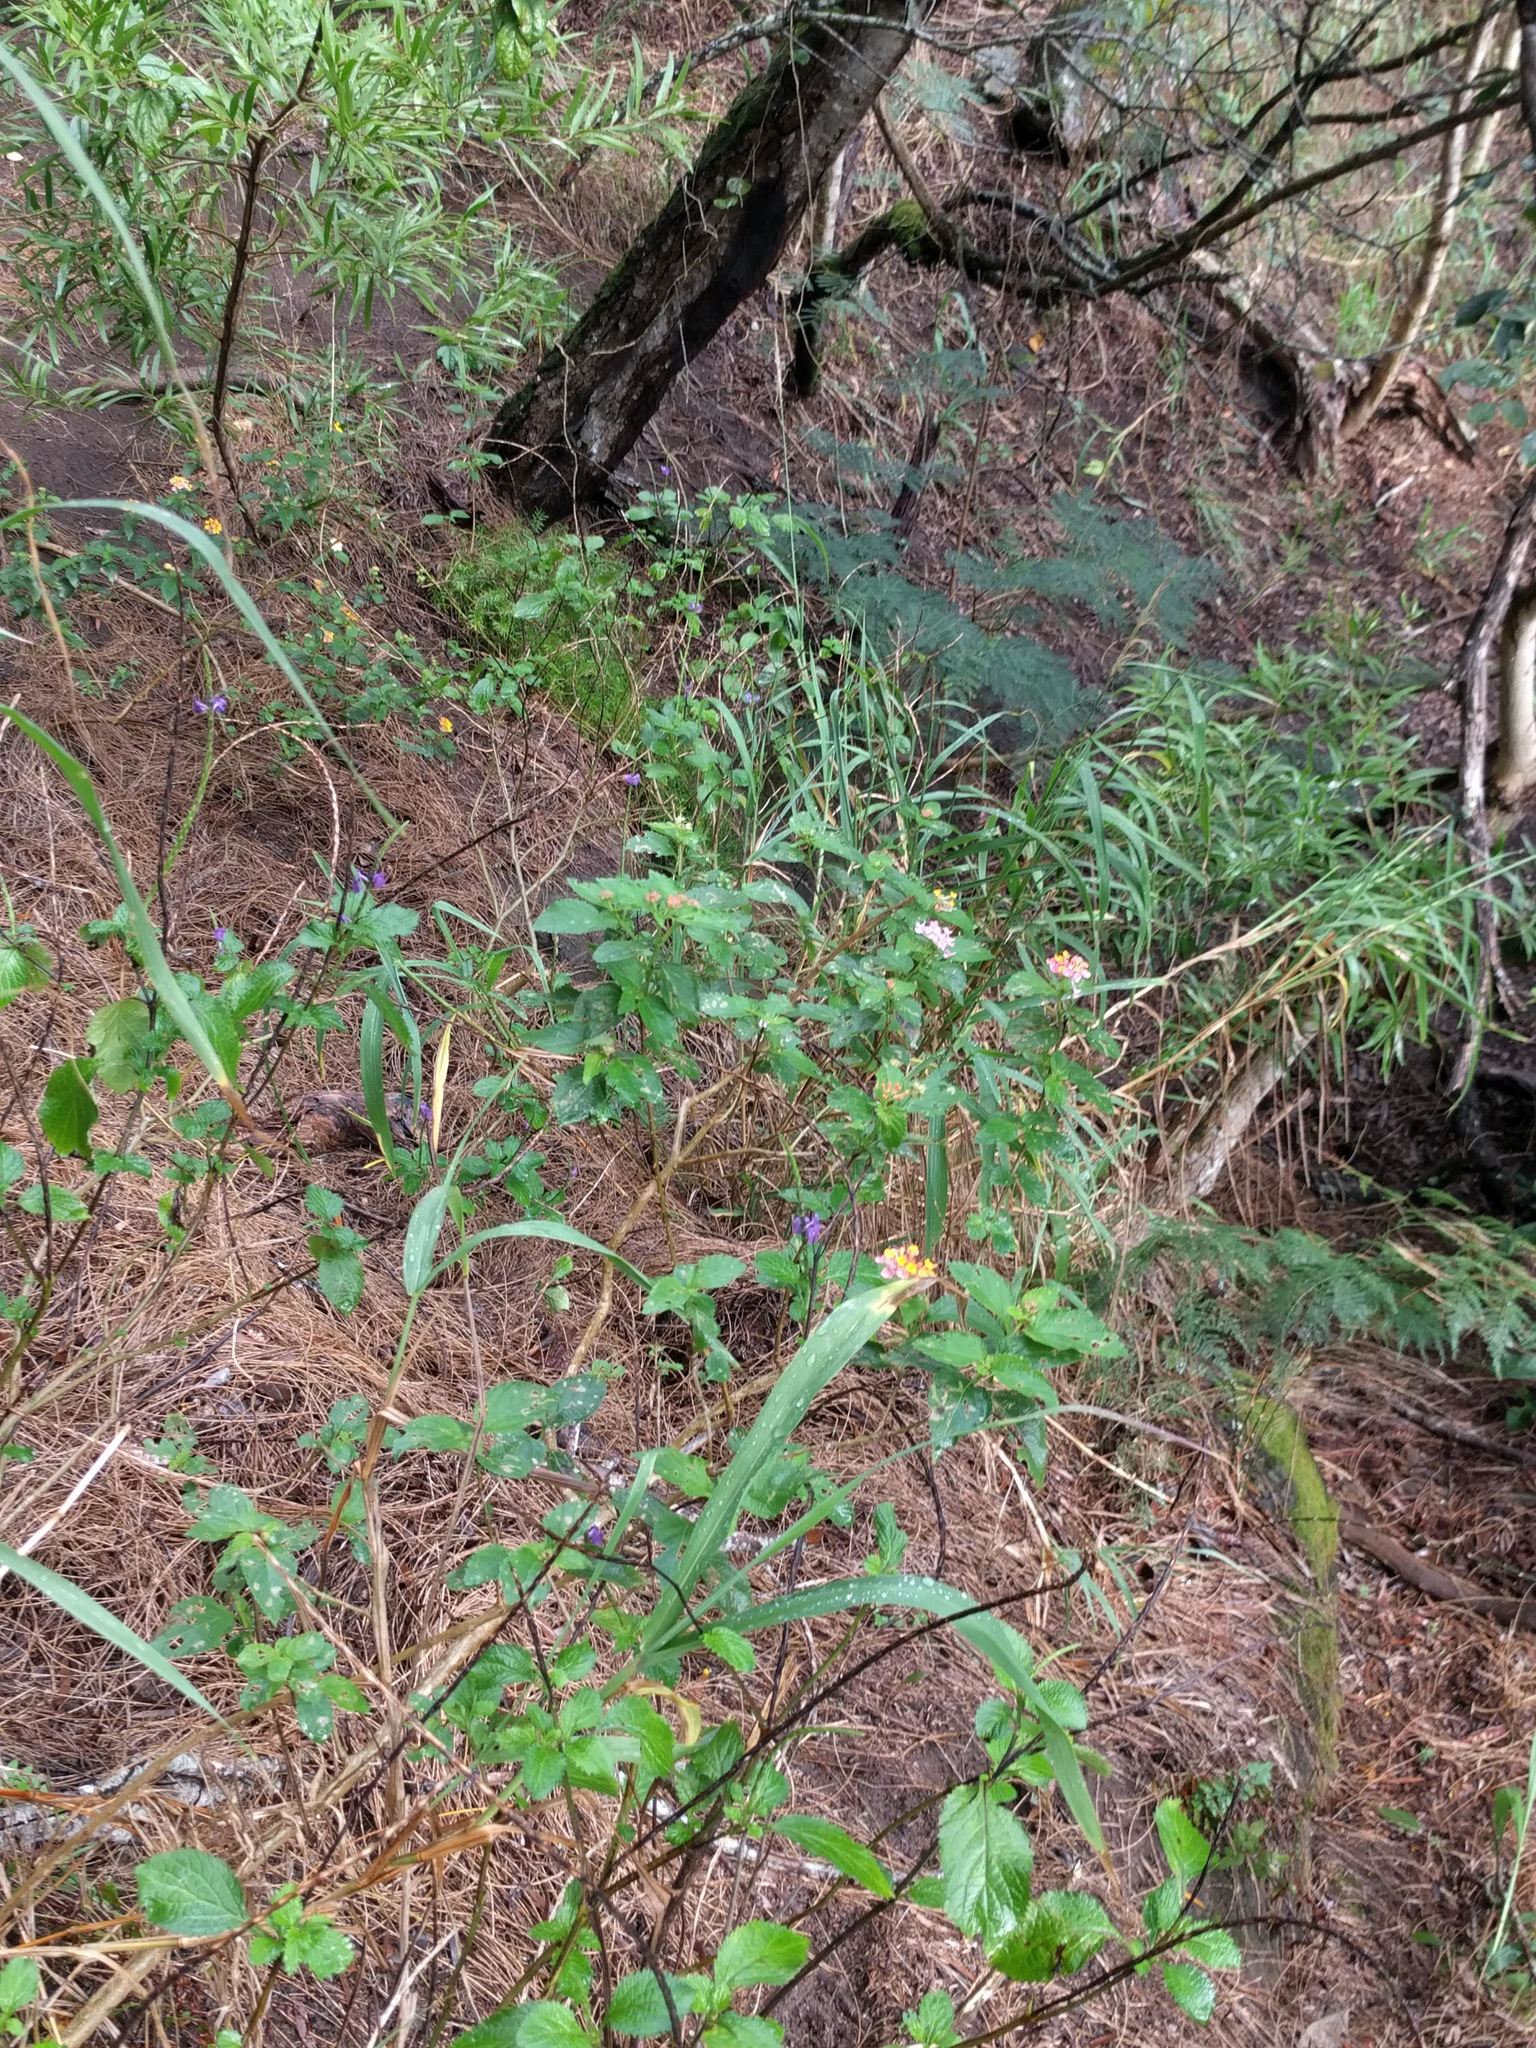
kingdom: Plantae
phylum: Tracheophyta
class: Magnoliopsida
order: Lamiales
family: Verbenaceae
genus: Lantana
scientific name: Lantana camara
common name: Lantana
